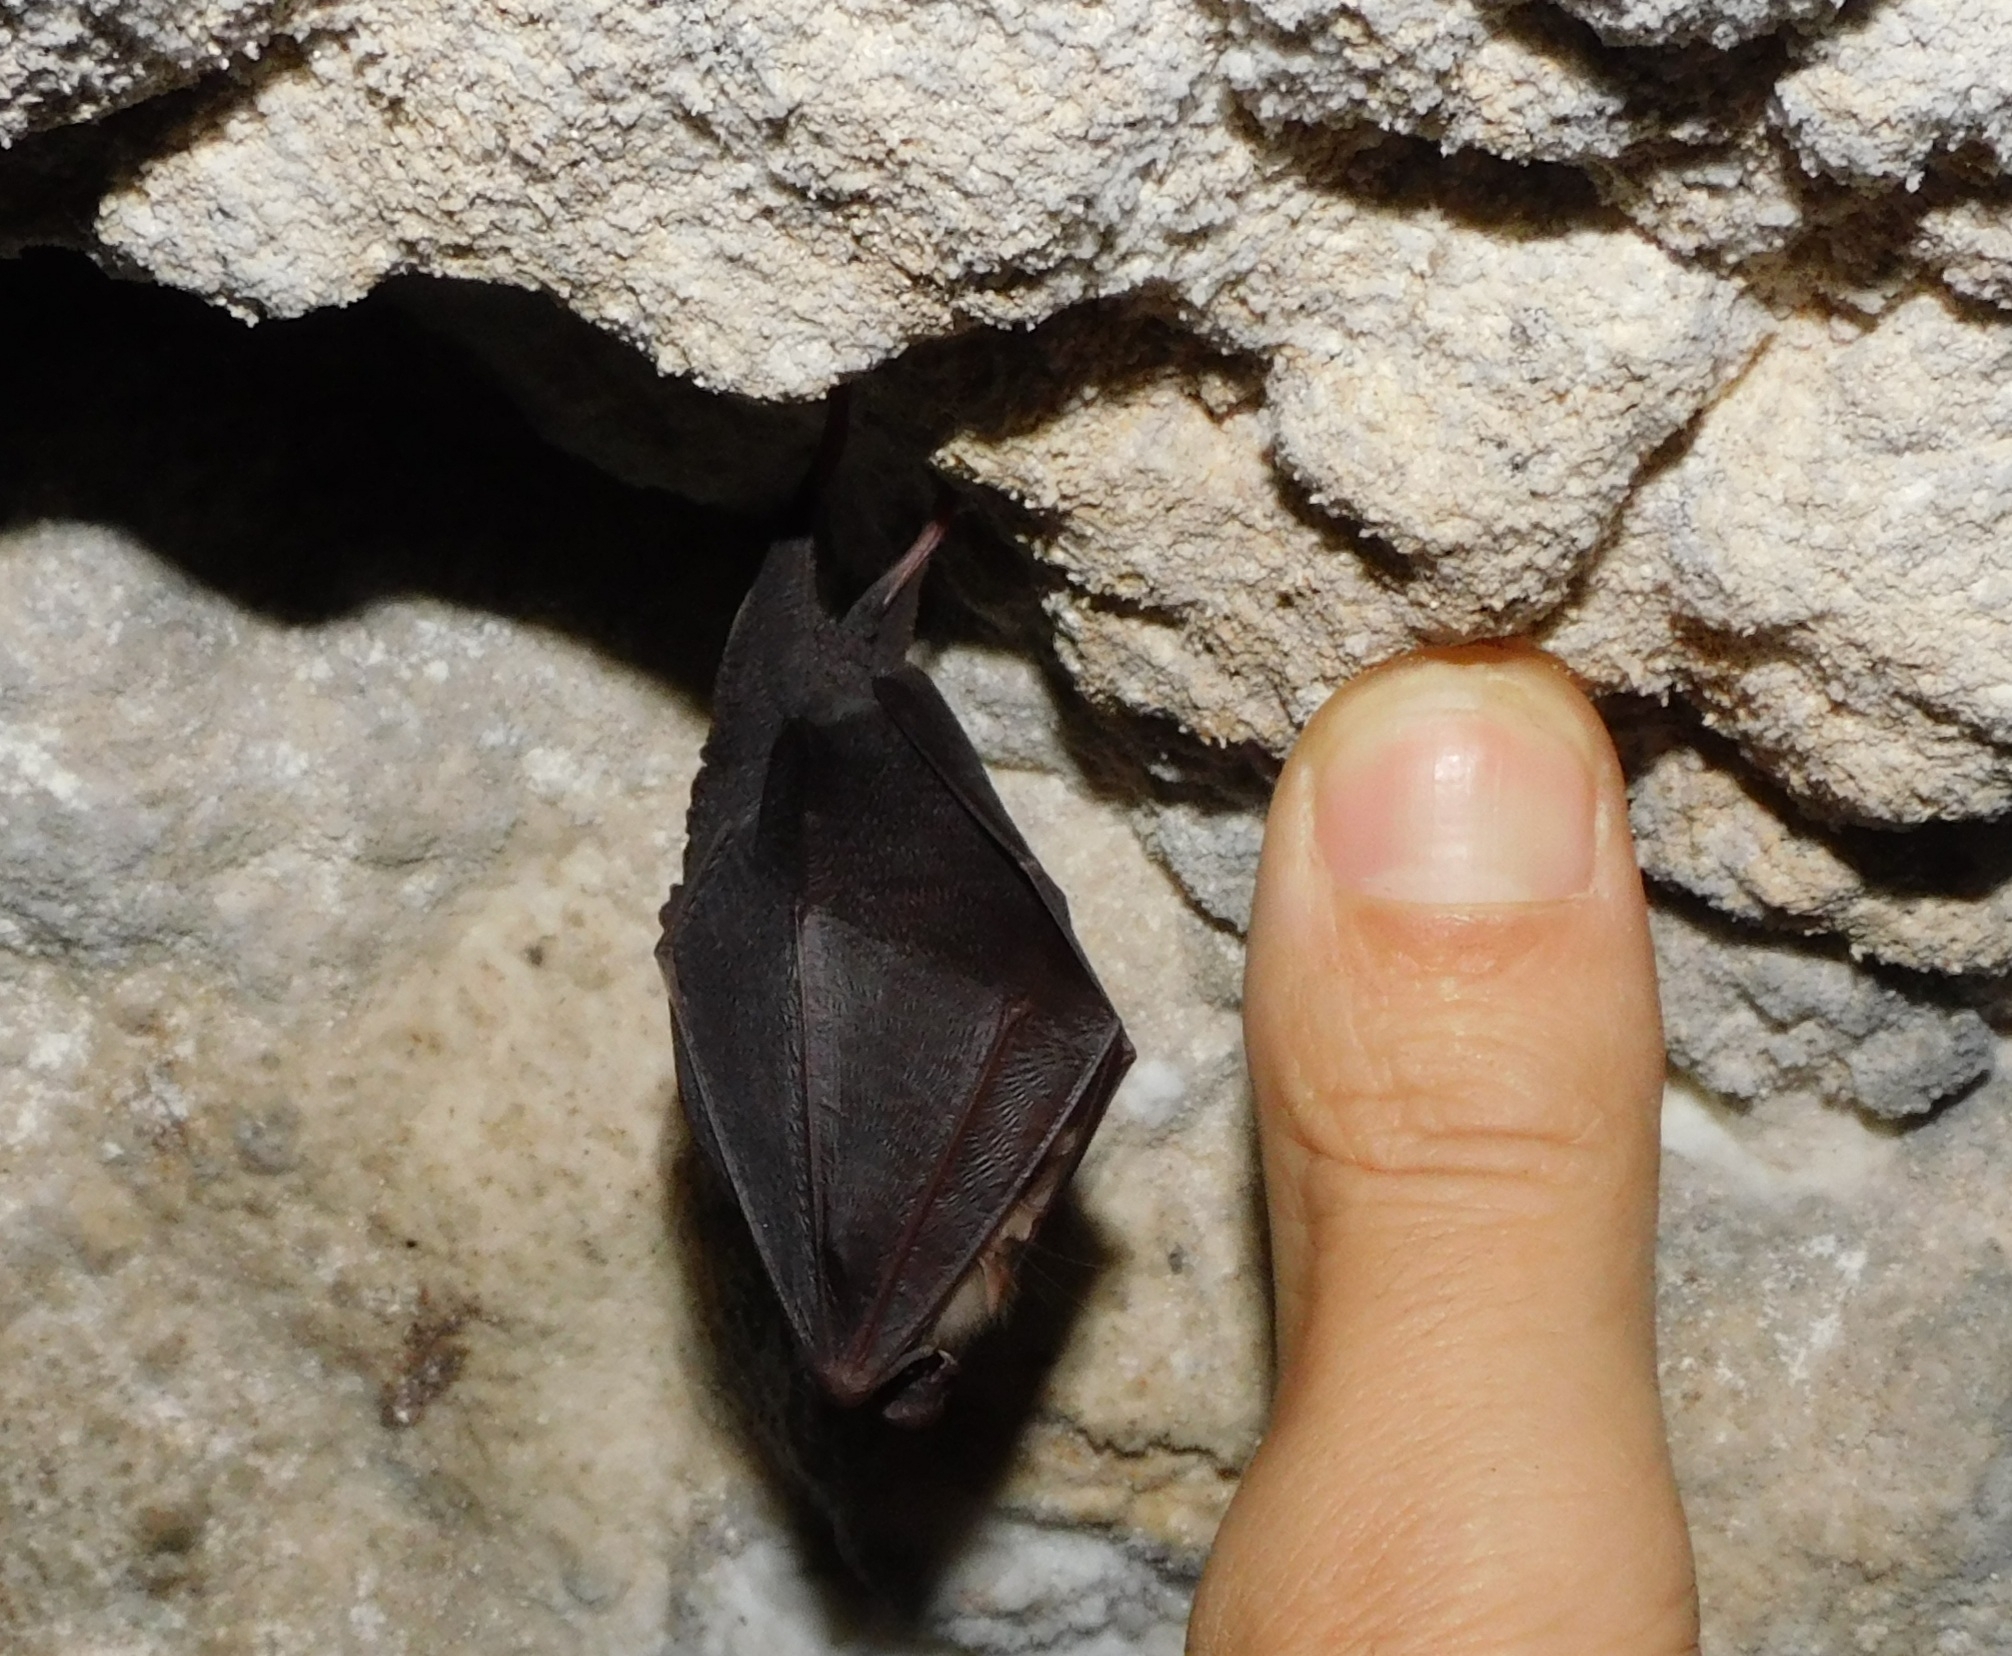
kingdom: Animalia
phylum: Chordata
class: Mammalia
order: Chiroptera
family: Rhinolophidae
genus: Rhinolophus
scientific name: Rhinolophus hipposideros
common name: Lesser horseshoe bat
